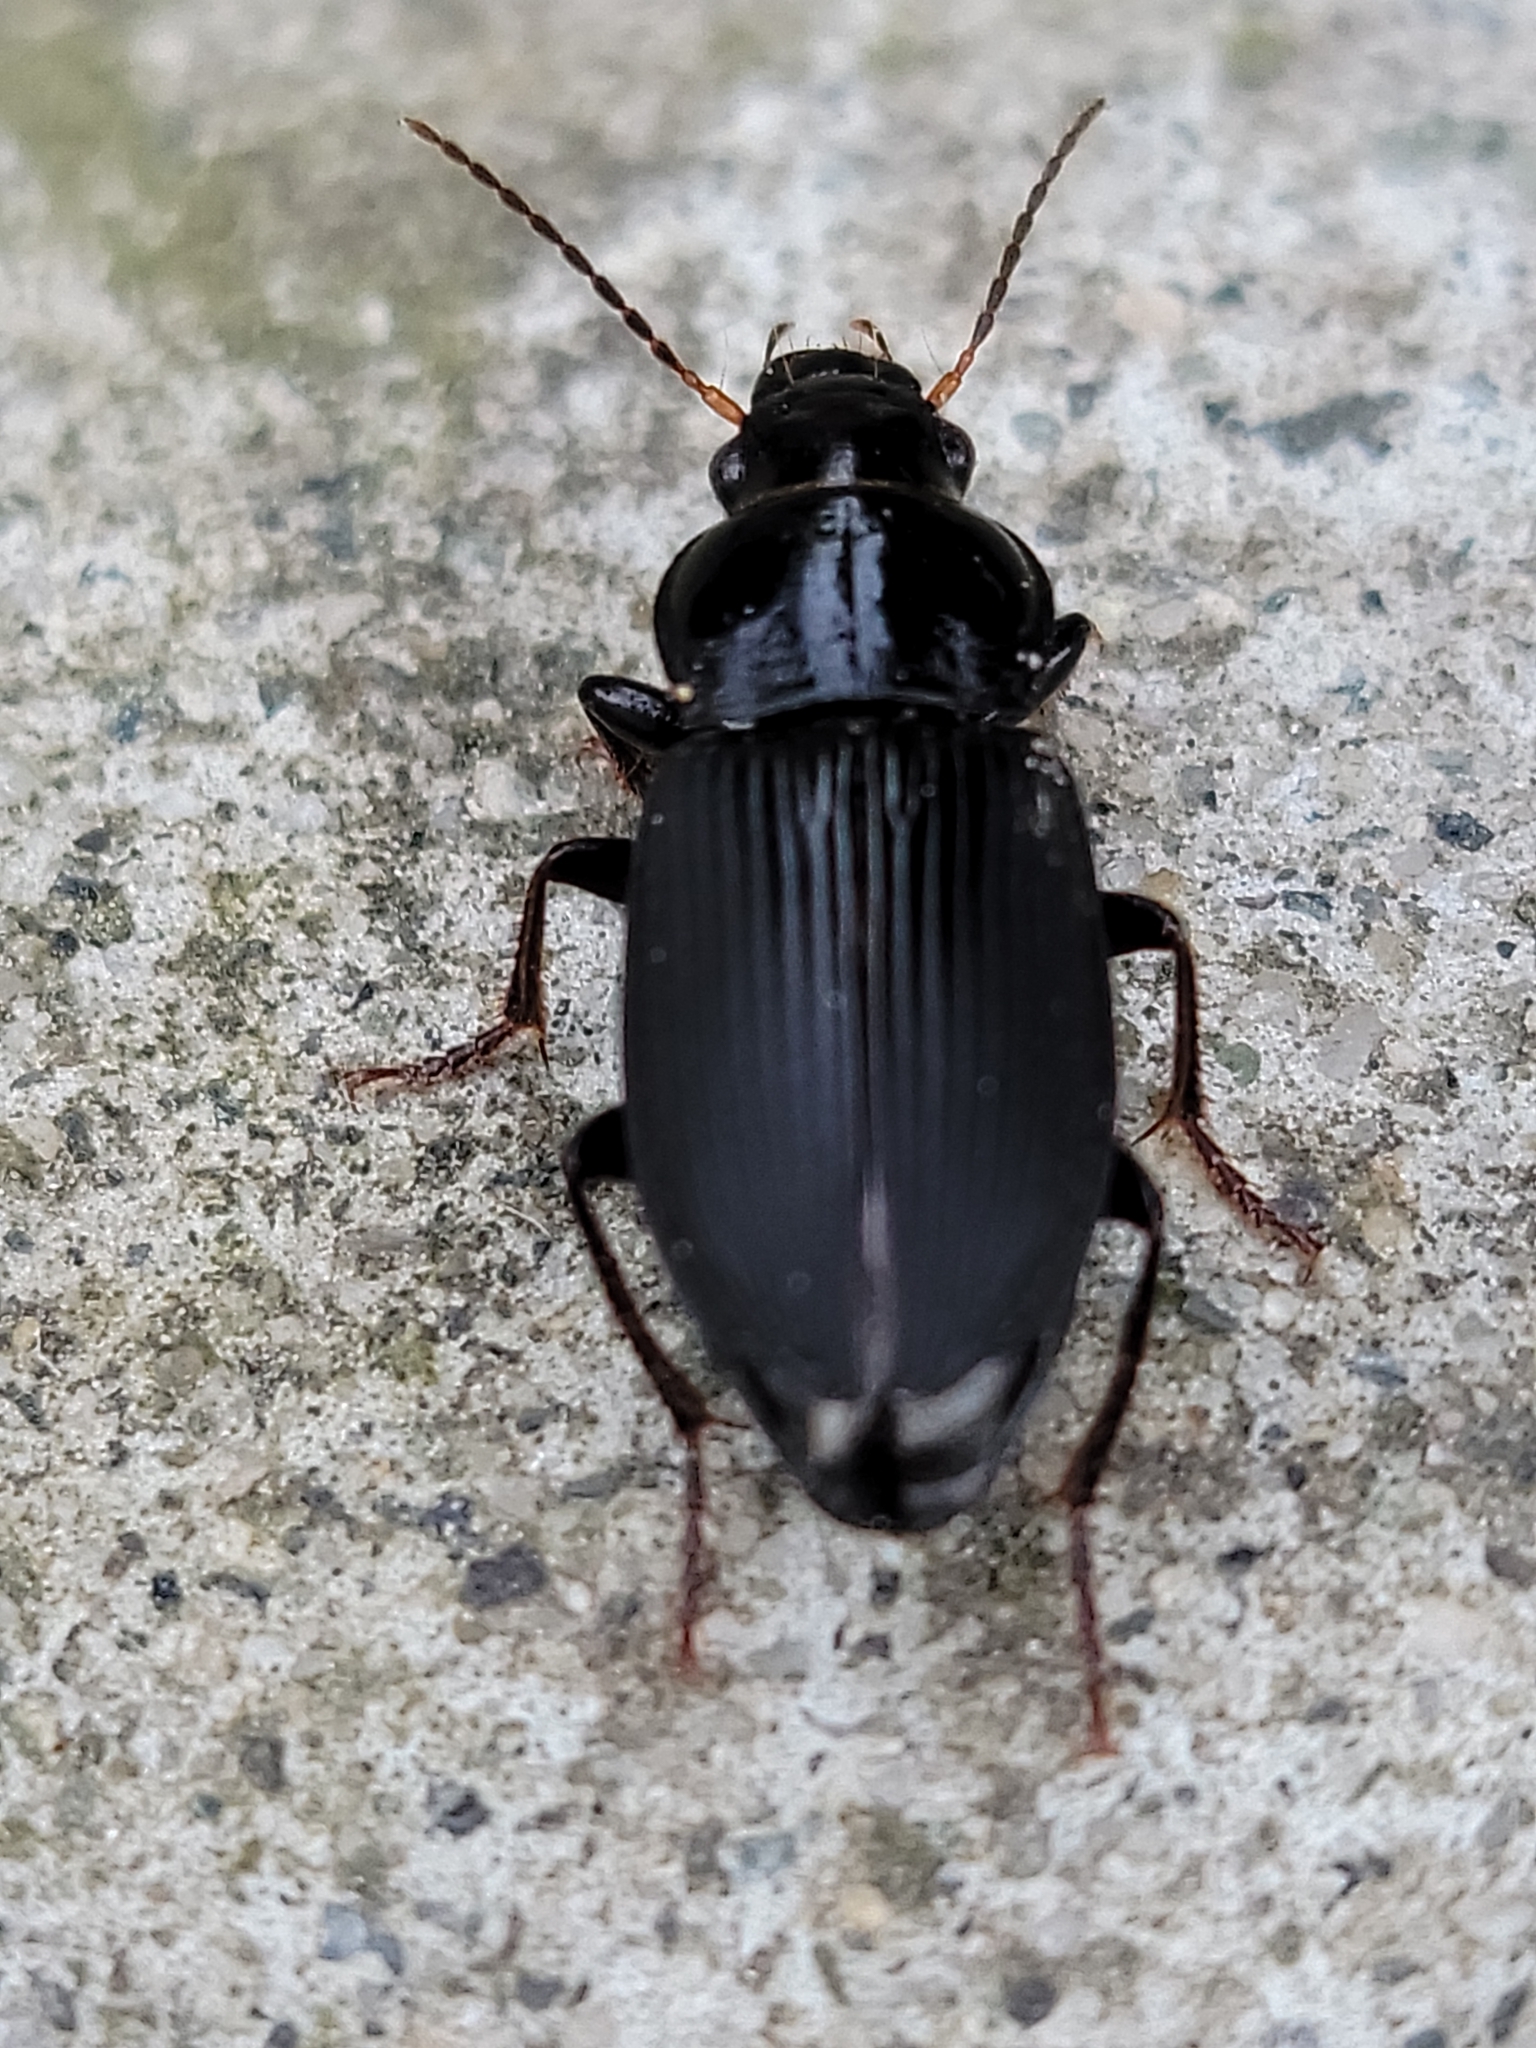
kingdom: Animalia
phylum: Arthropoda
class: Insecta
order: Coleoptera
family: Carabidae
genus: Anisodactylus
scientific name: Anisodactylus binotatus
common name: Two-marked harp ground beetle
